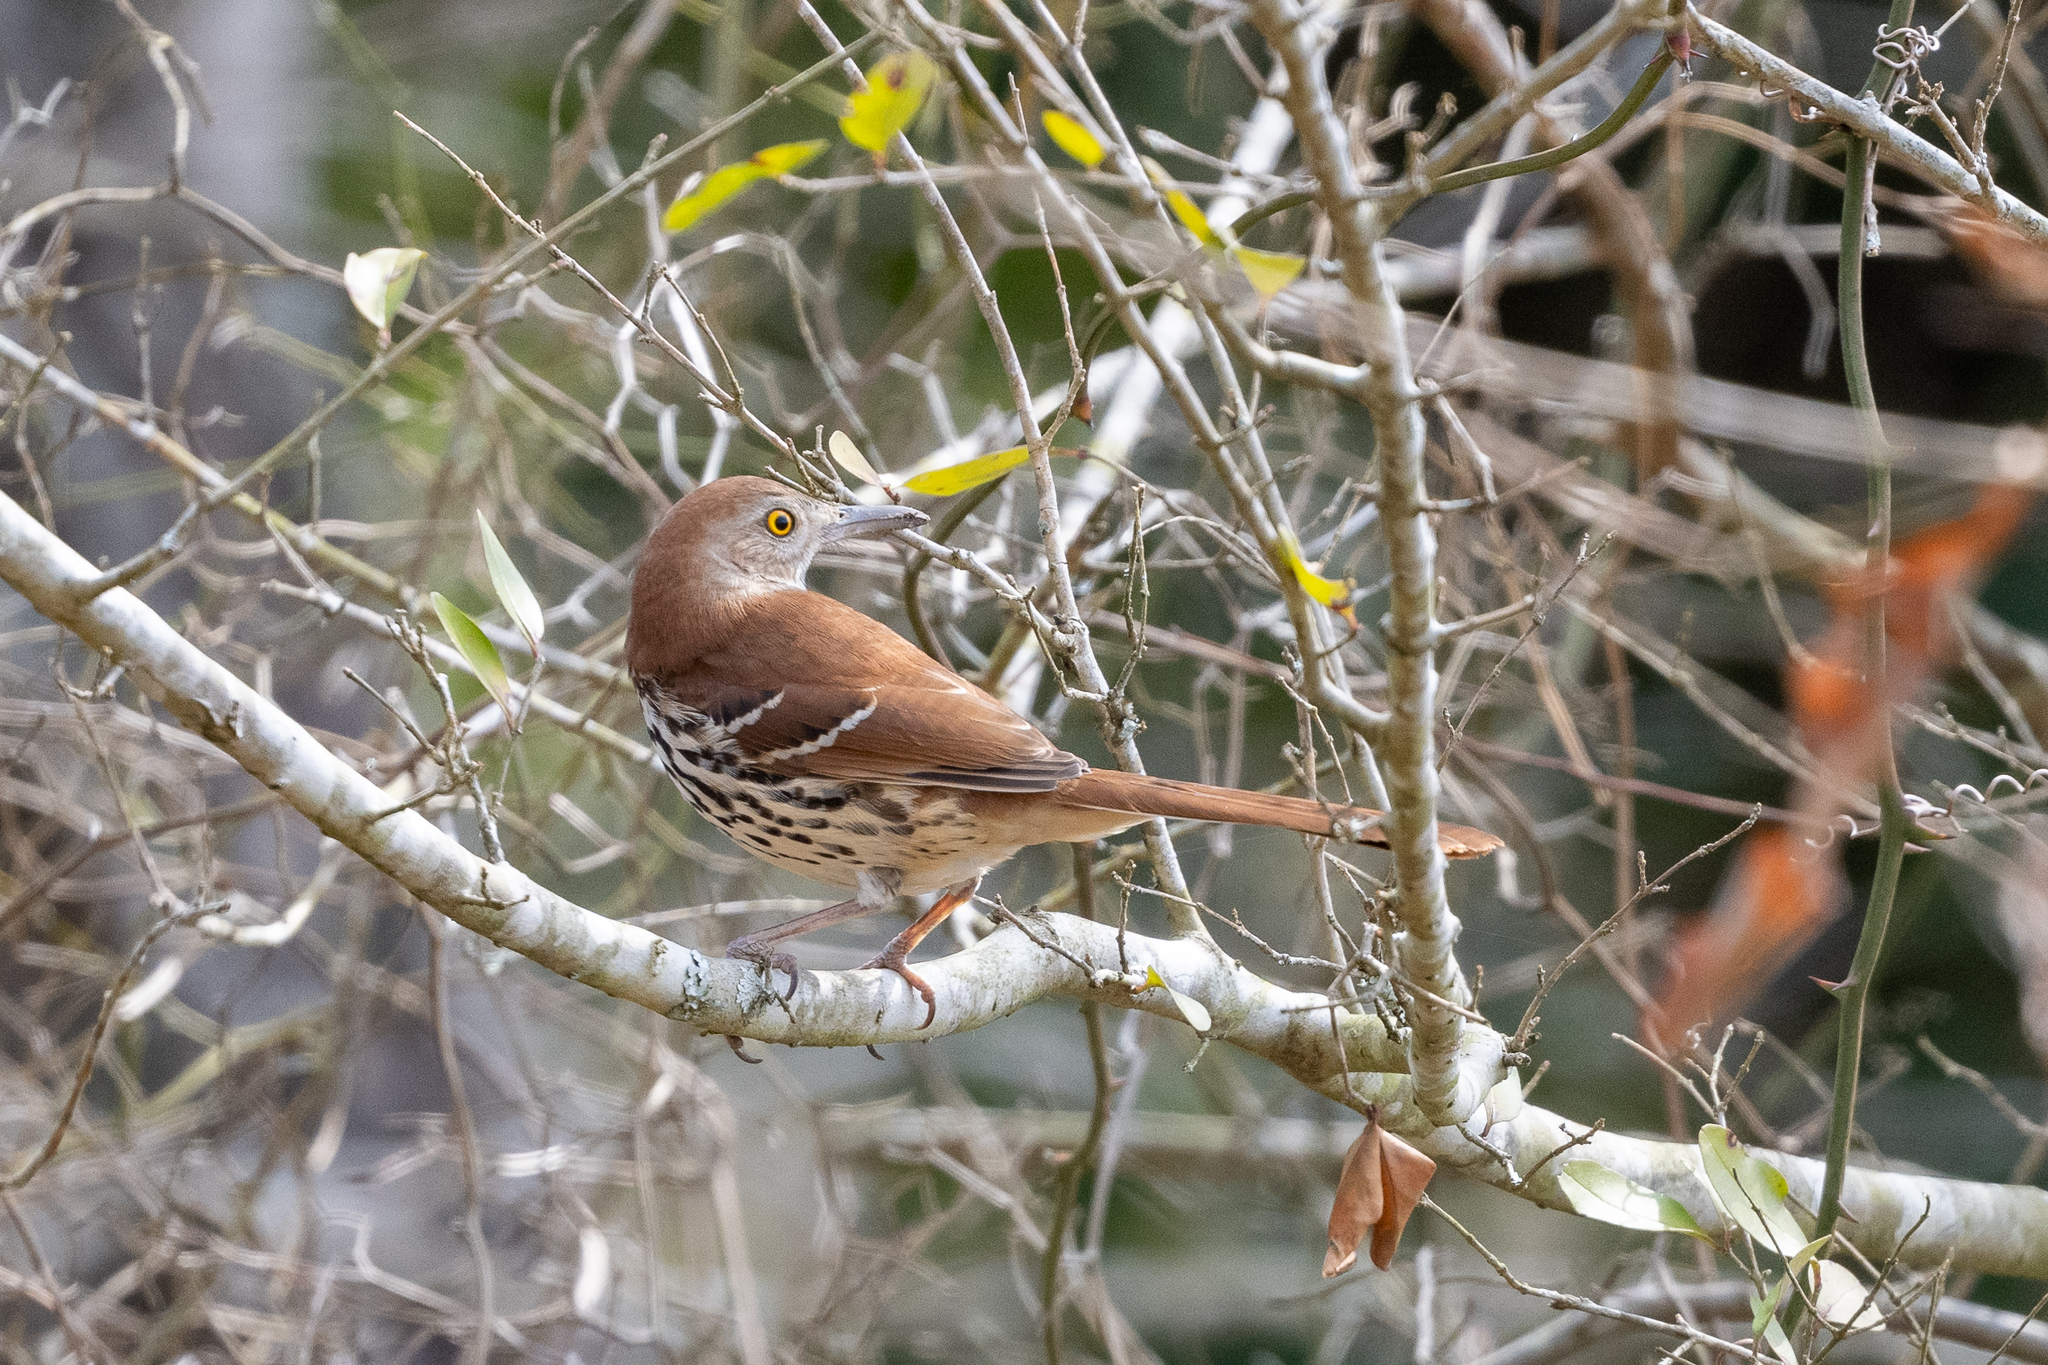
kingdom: Animalia
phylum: Chordata
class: Aves
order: Passeriformes
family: Mimidae
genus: Toxostoma
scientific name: Toxostoma rufum
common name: Brown thrasher
